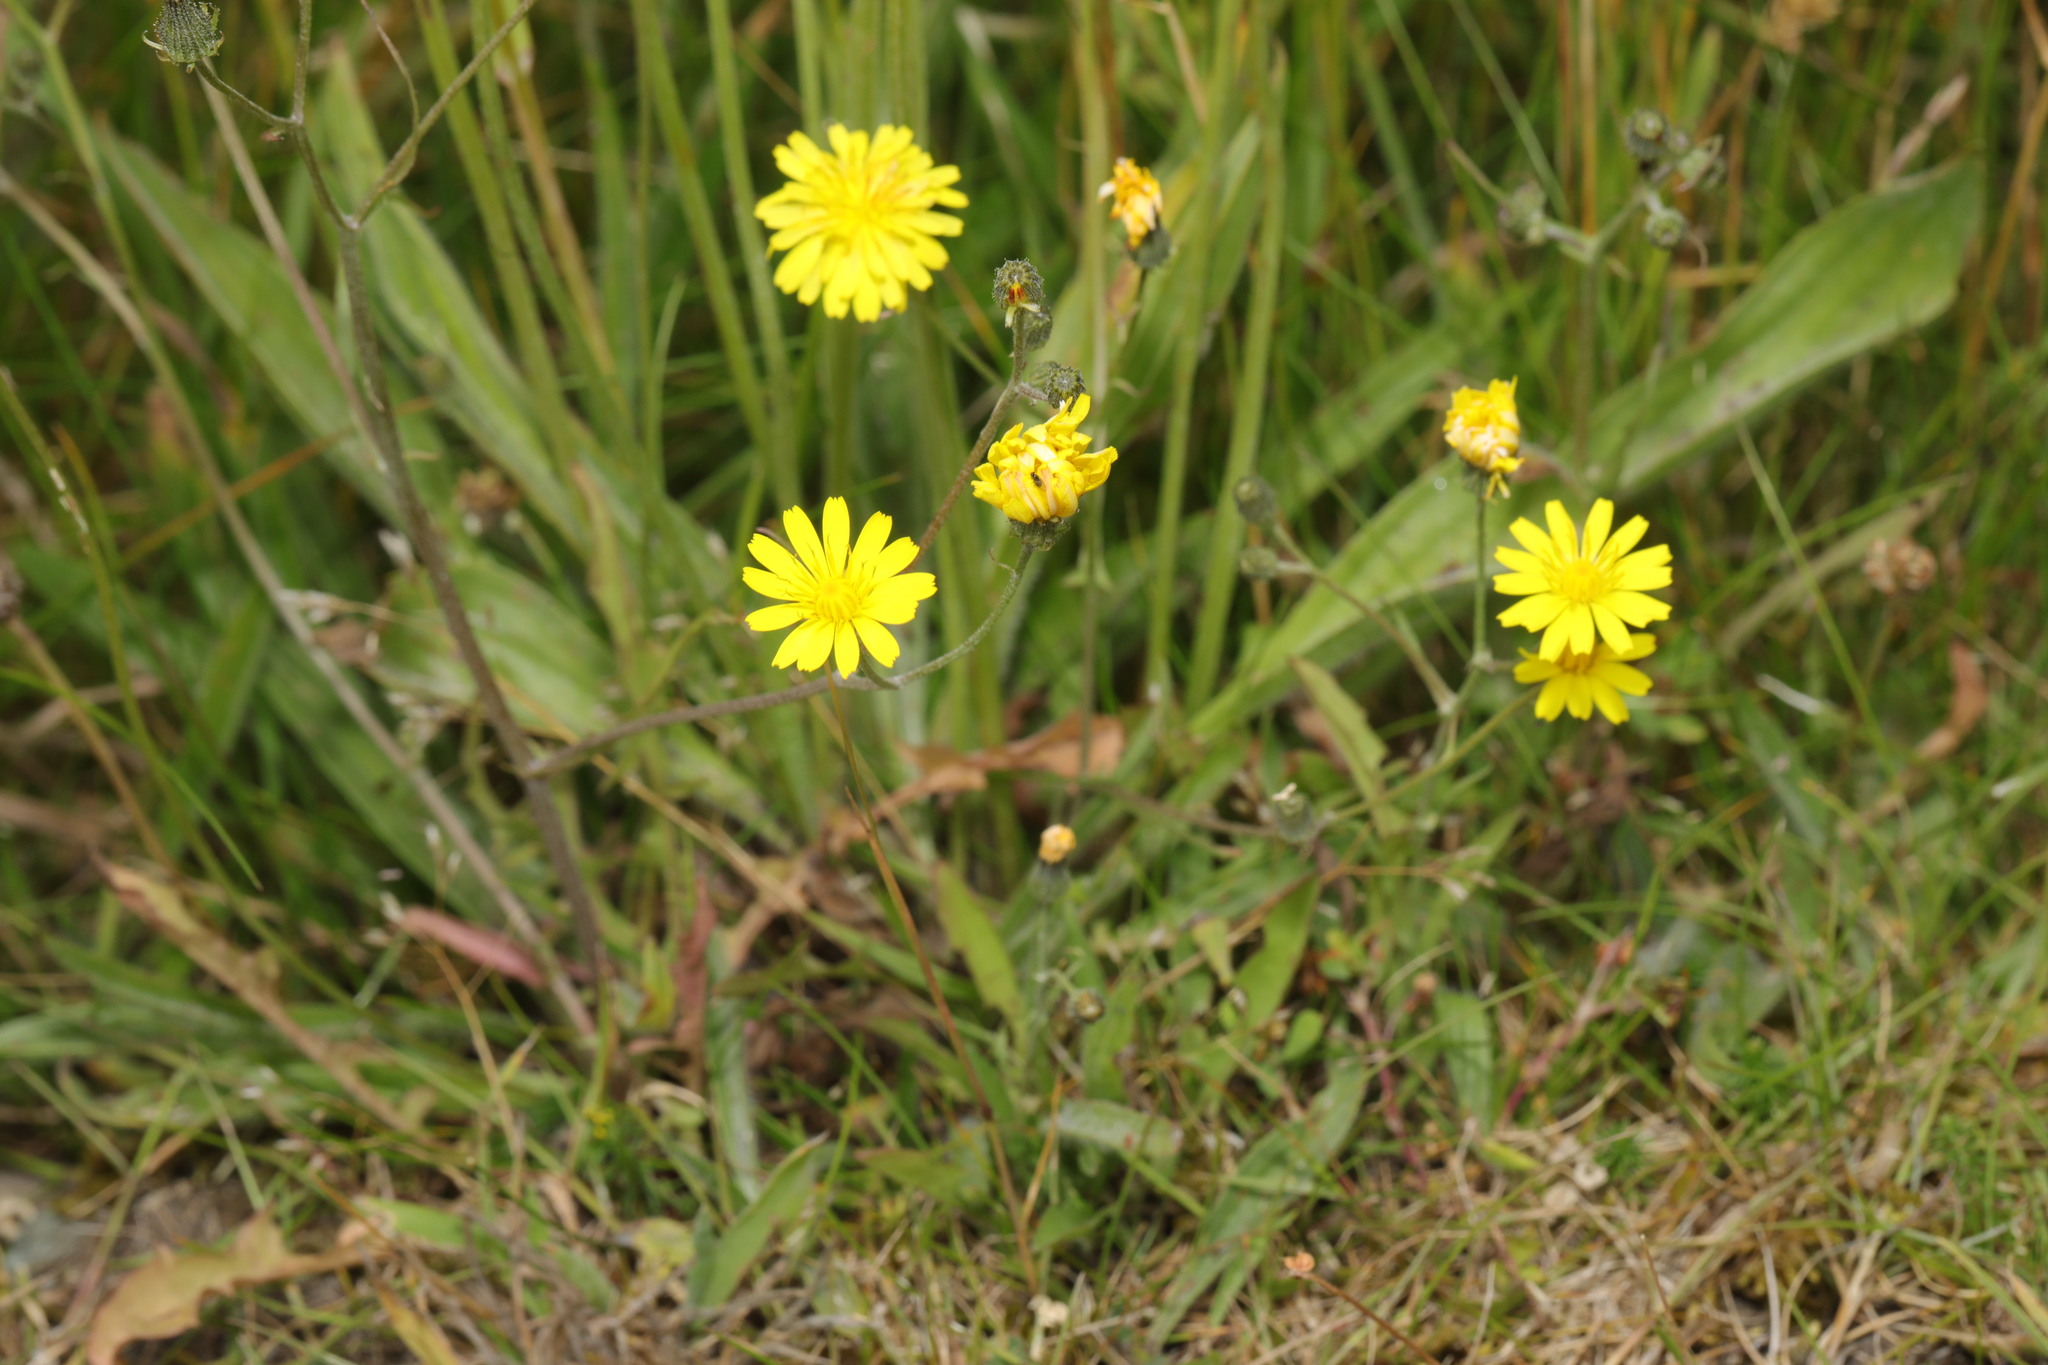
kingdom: Plantae
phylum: Tracheophyta
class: Magnoliopsida
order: Asterales
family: Asteraceae
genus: Crepis
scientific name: Crepis capillaris
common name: Smooth hawksbeard
